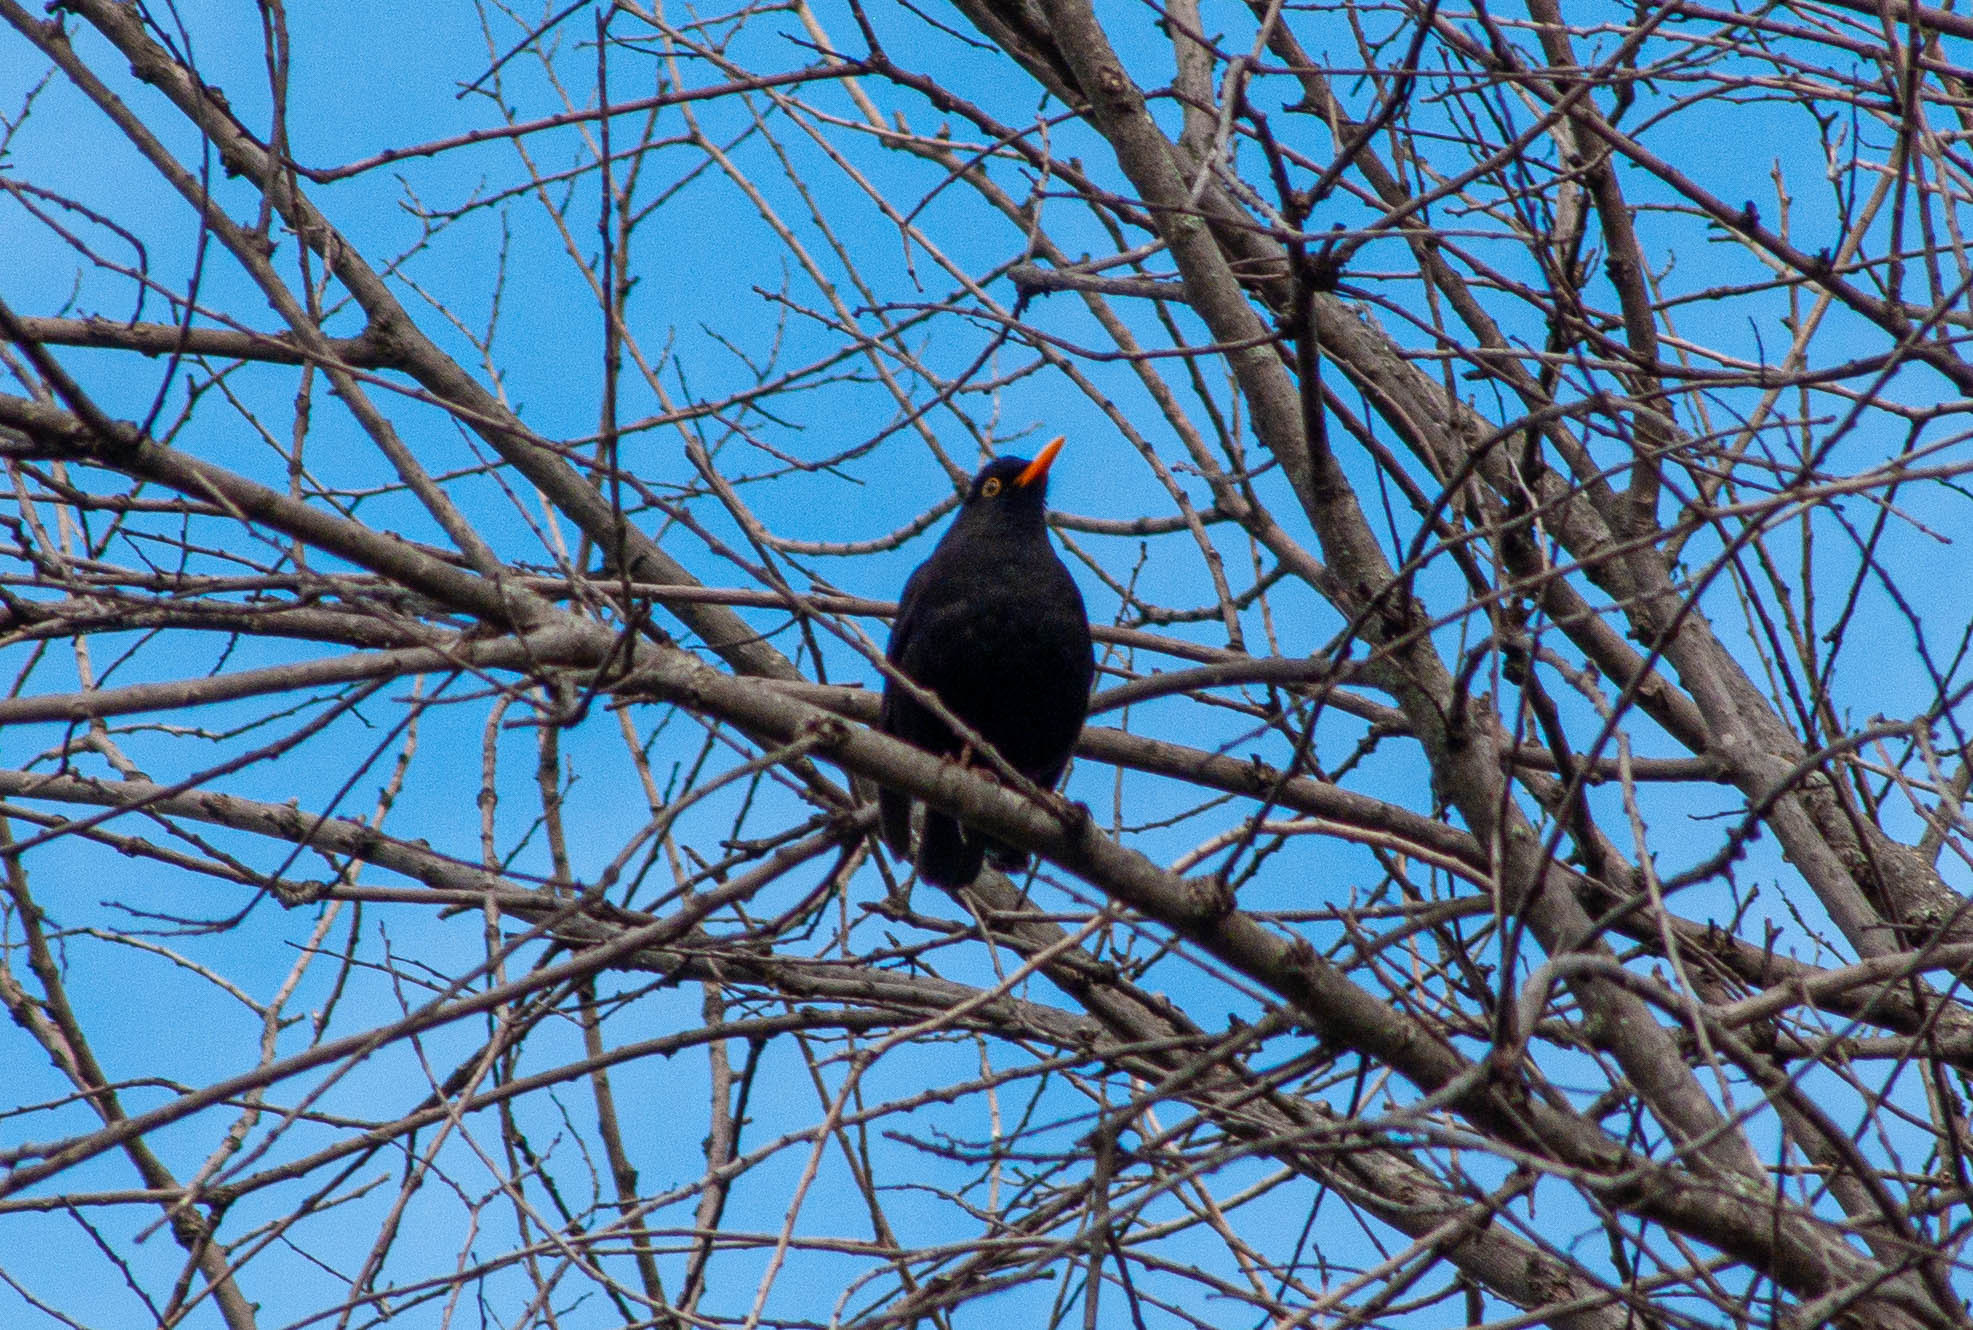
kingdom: Animalia
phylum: Chordata
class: Aves
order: Passeriformes
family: Turdidae
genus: Turdus
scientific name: Turdus merula
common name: Common blackbird
